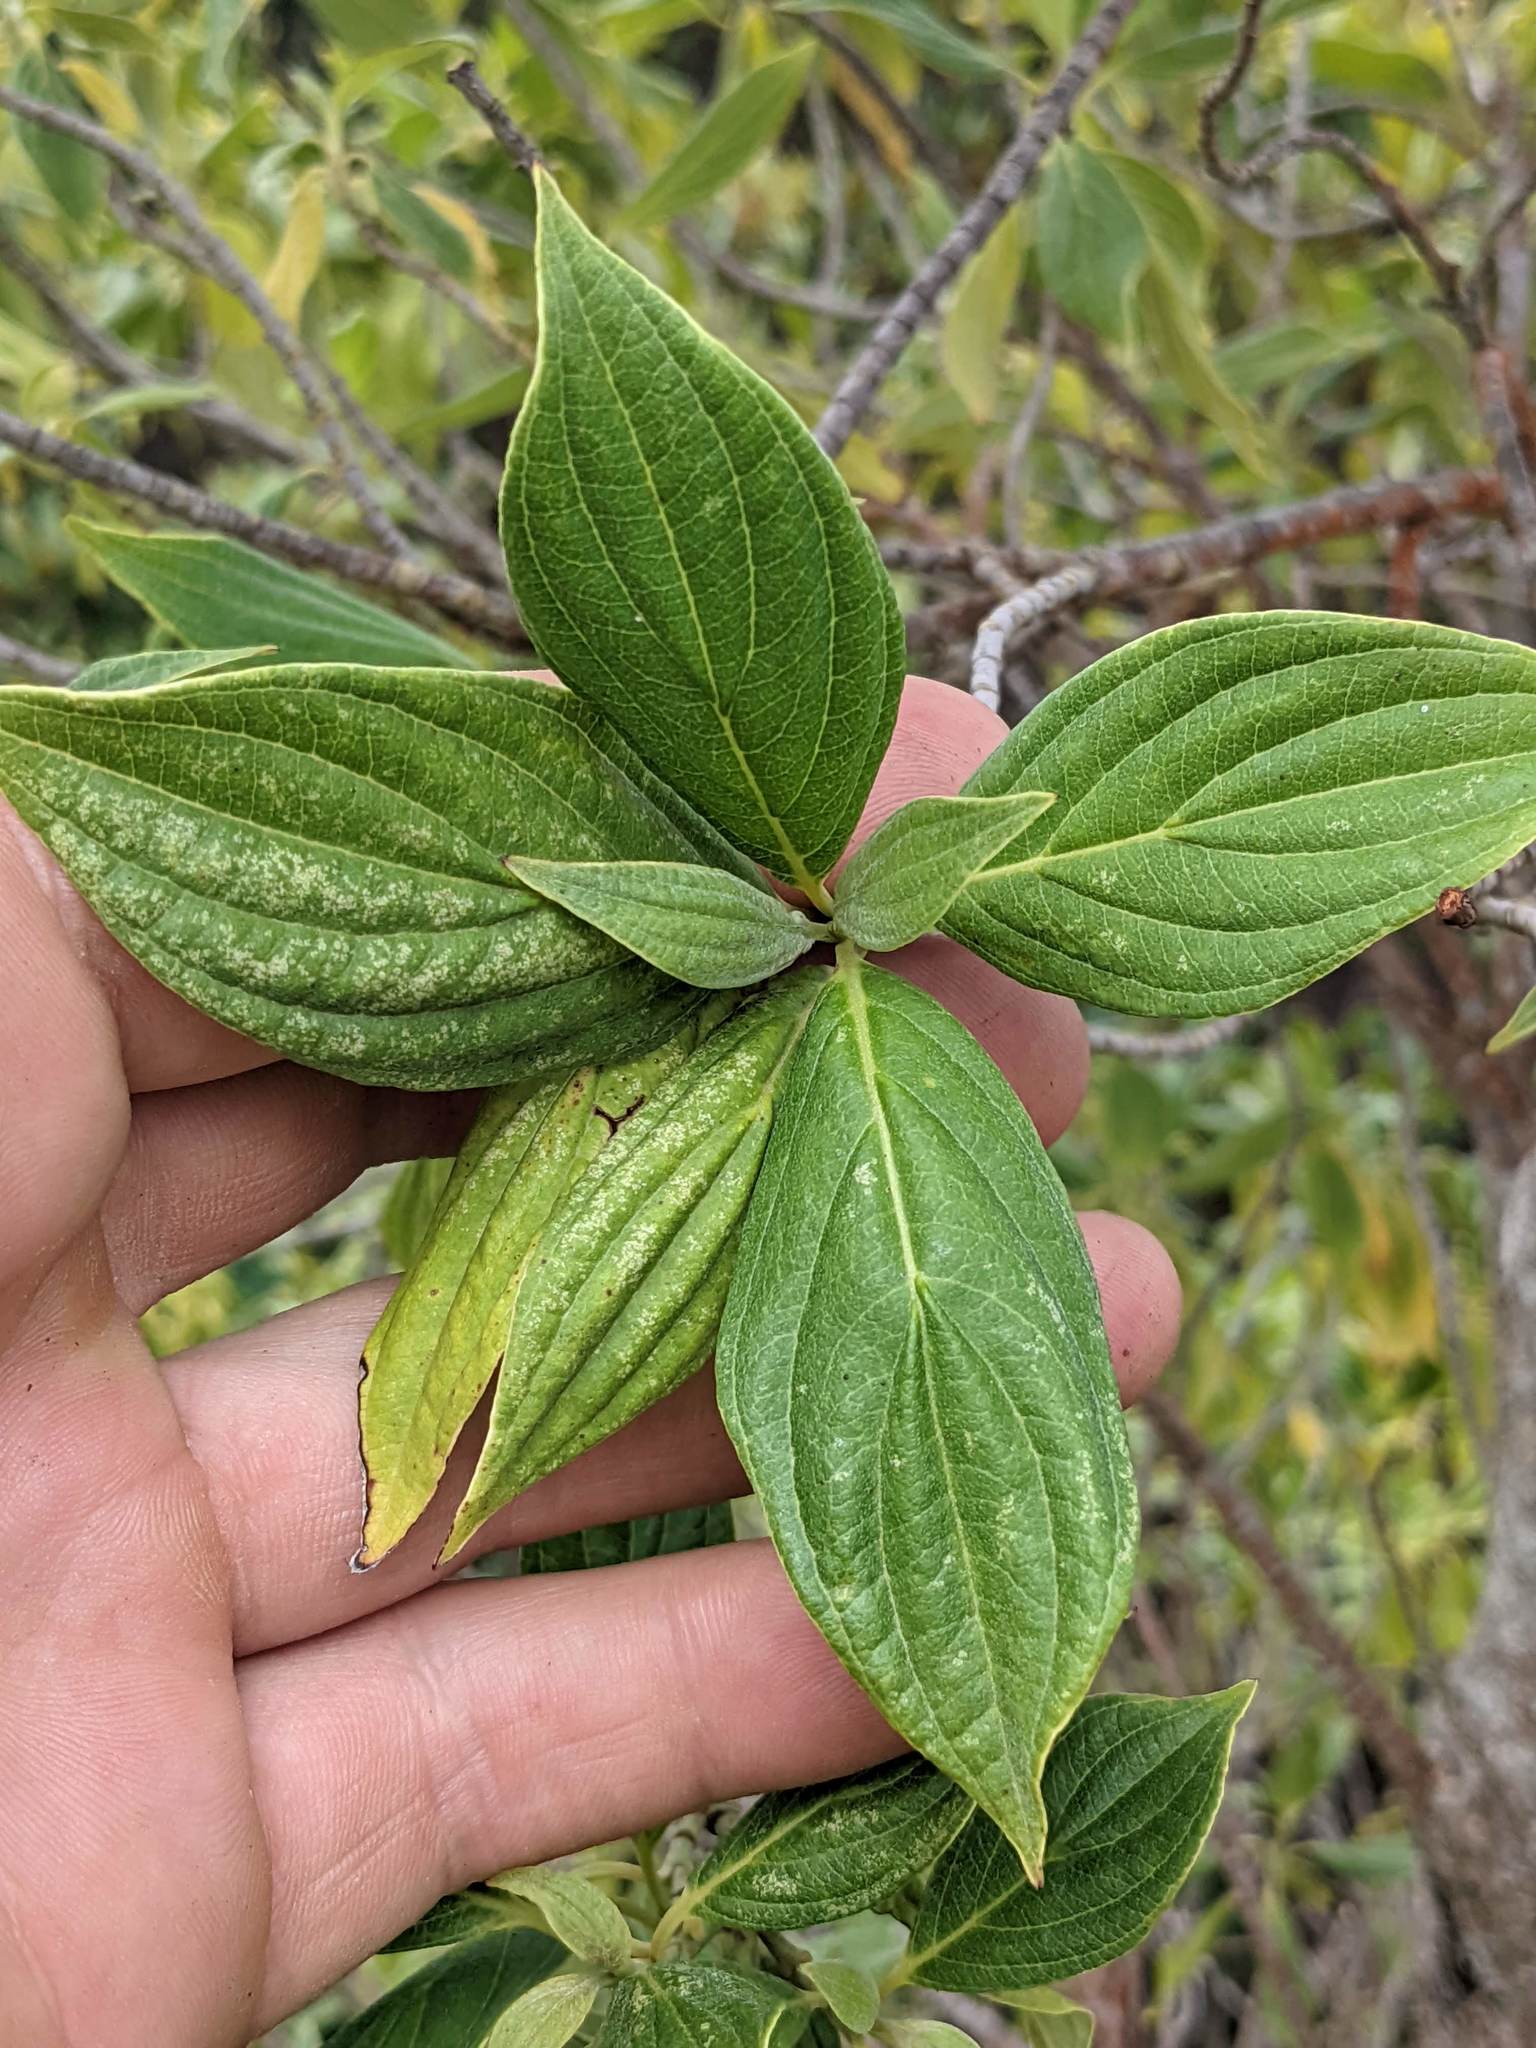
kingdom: Plantae
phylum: Tracheophyta
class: Magnoliopsida
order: Cornales
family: Cornaceae
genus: Cornus
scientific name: Cornus disciflora
